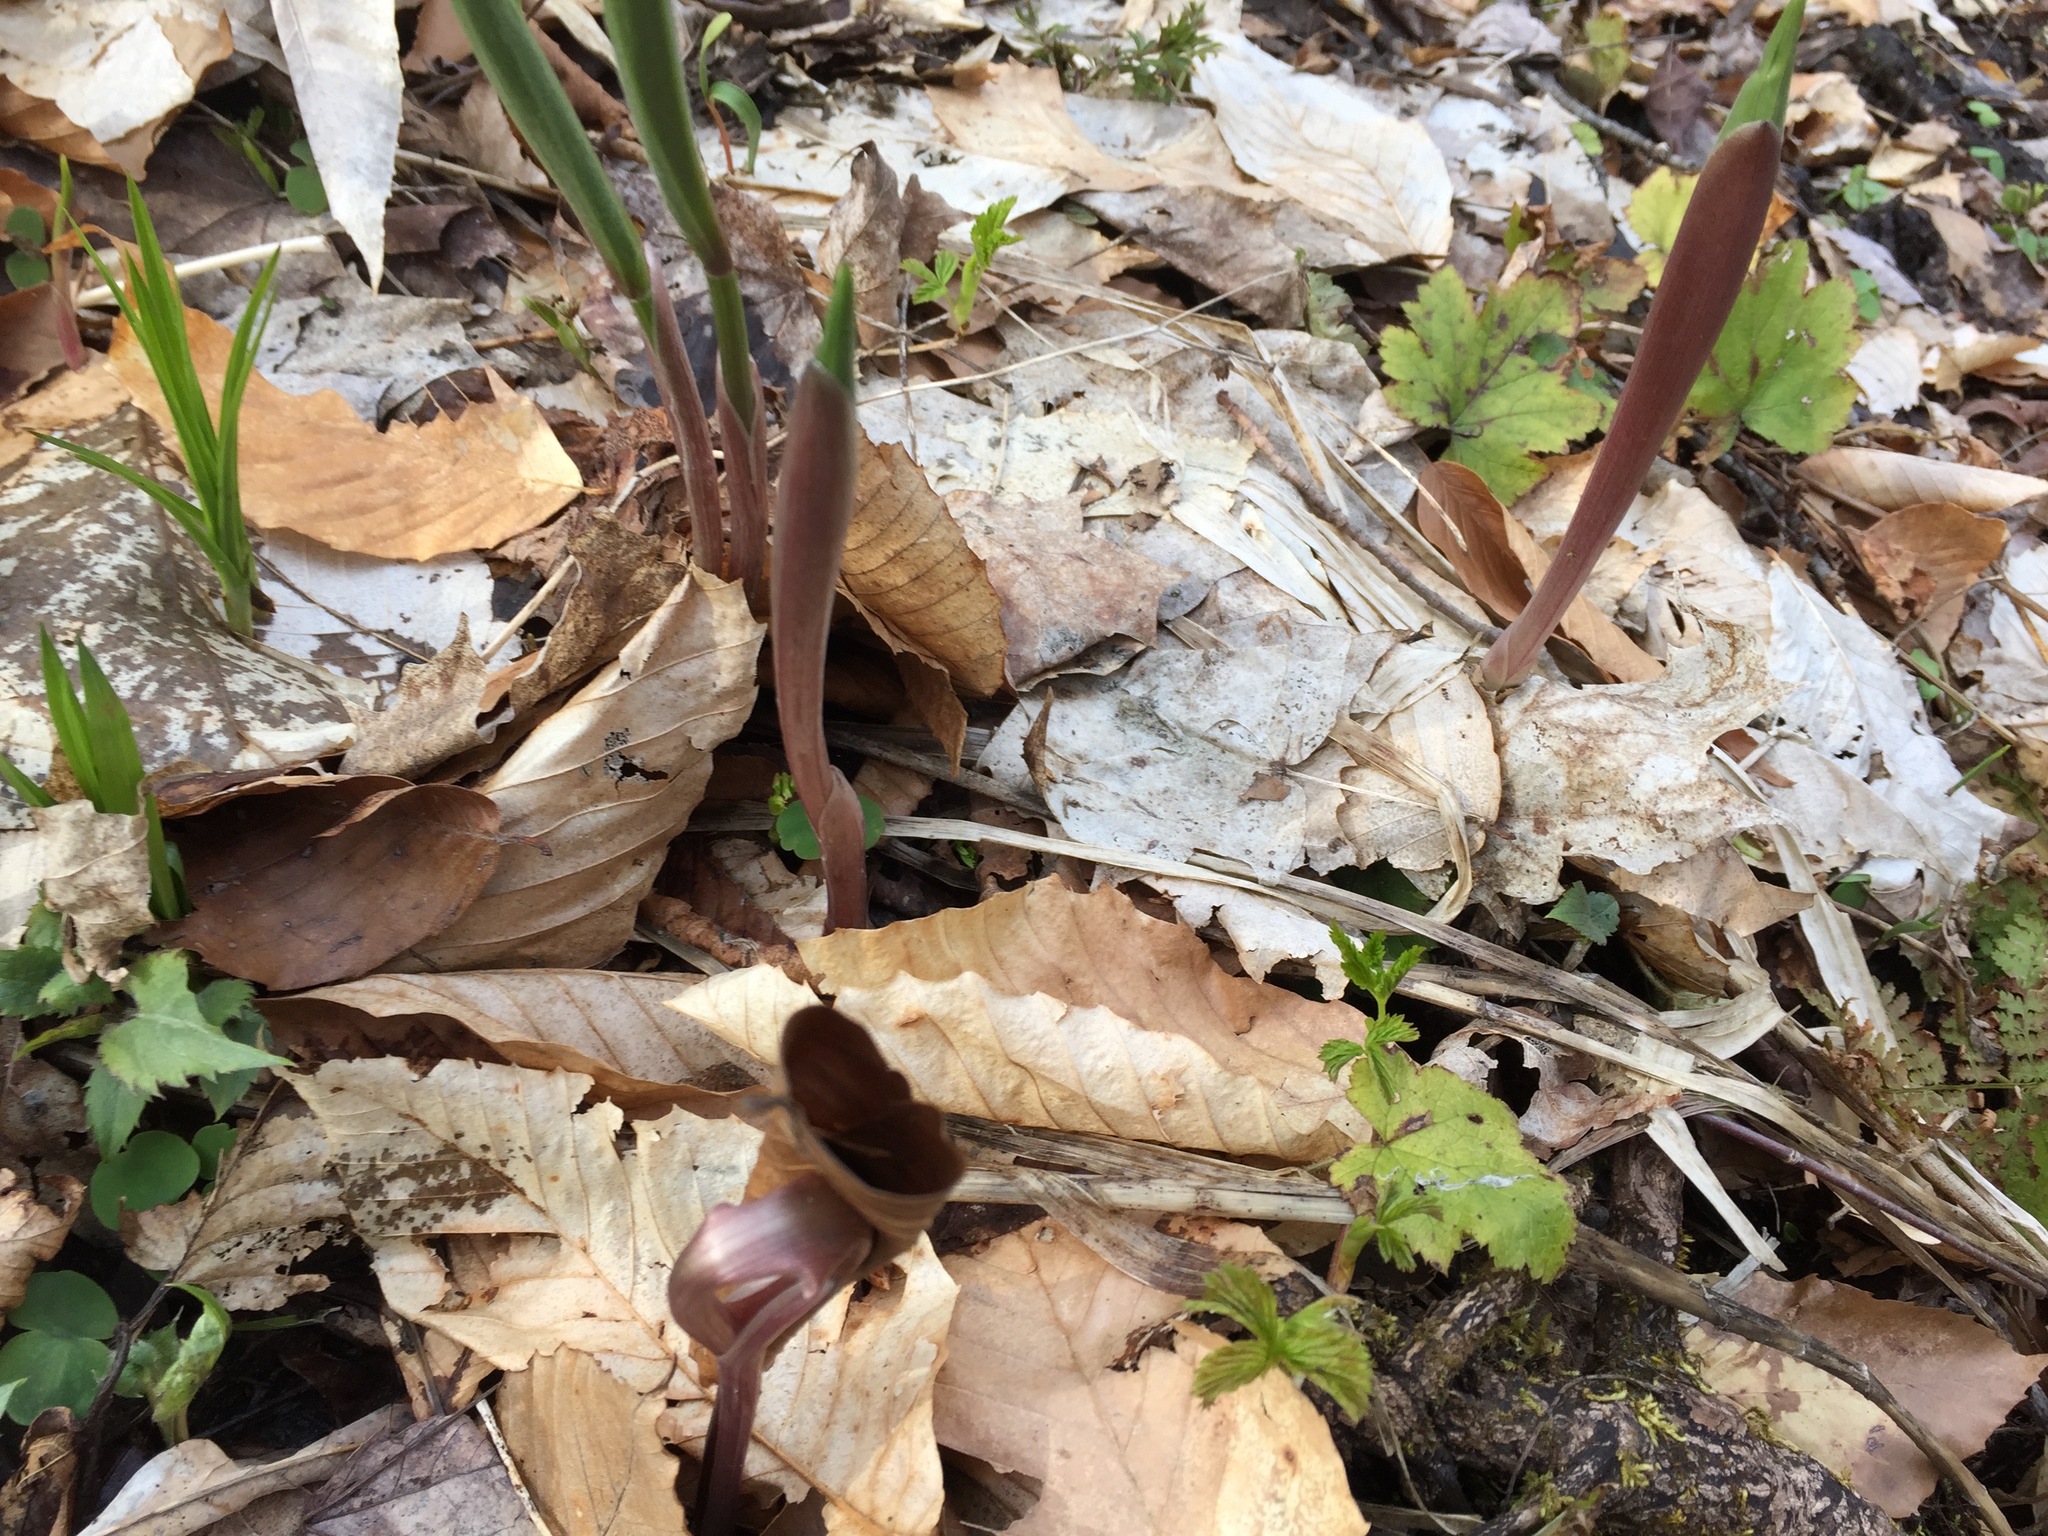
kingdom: Plantae
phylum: Tracheophyta
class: Liliopsida
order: Asparagales
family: Asparagaceae
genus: Maianthemum
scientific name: Maianthemum racemosum
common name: False spikenard
